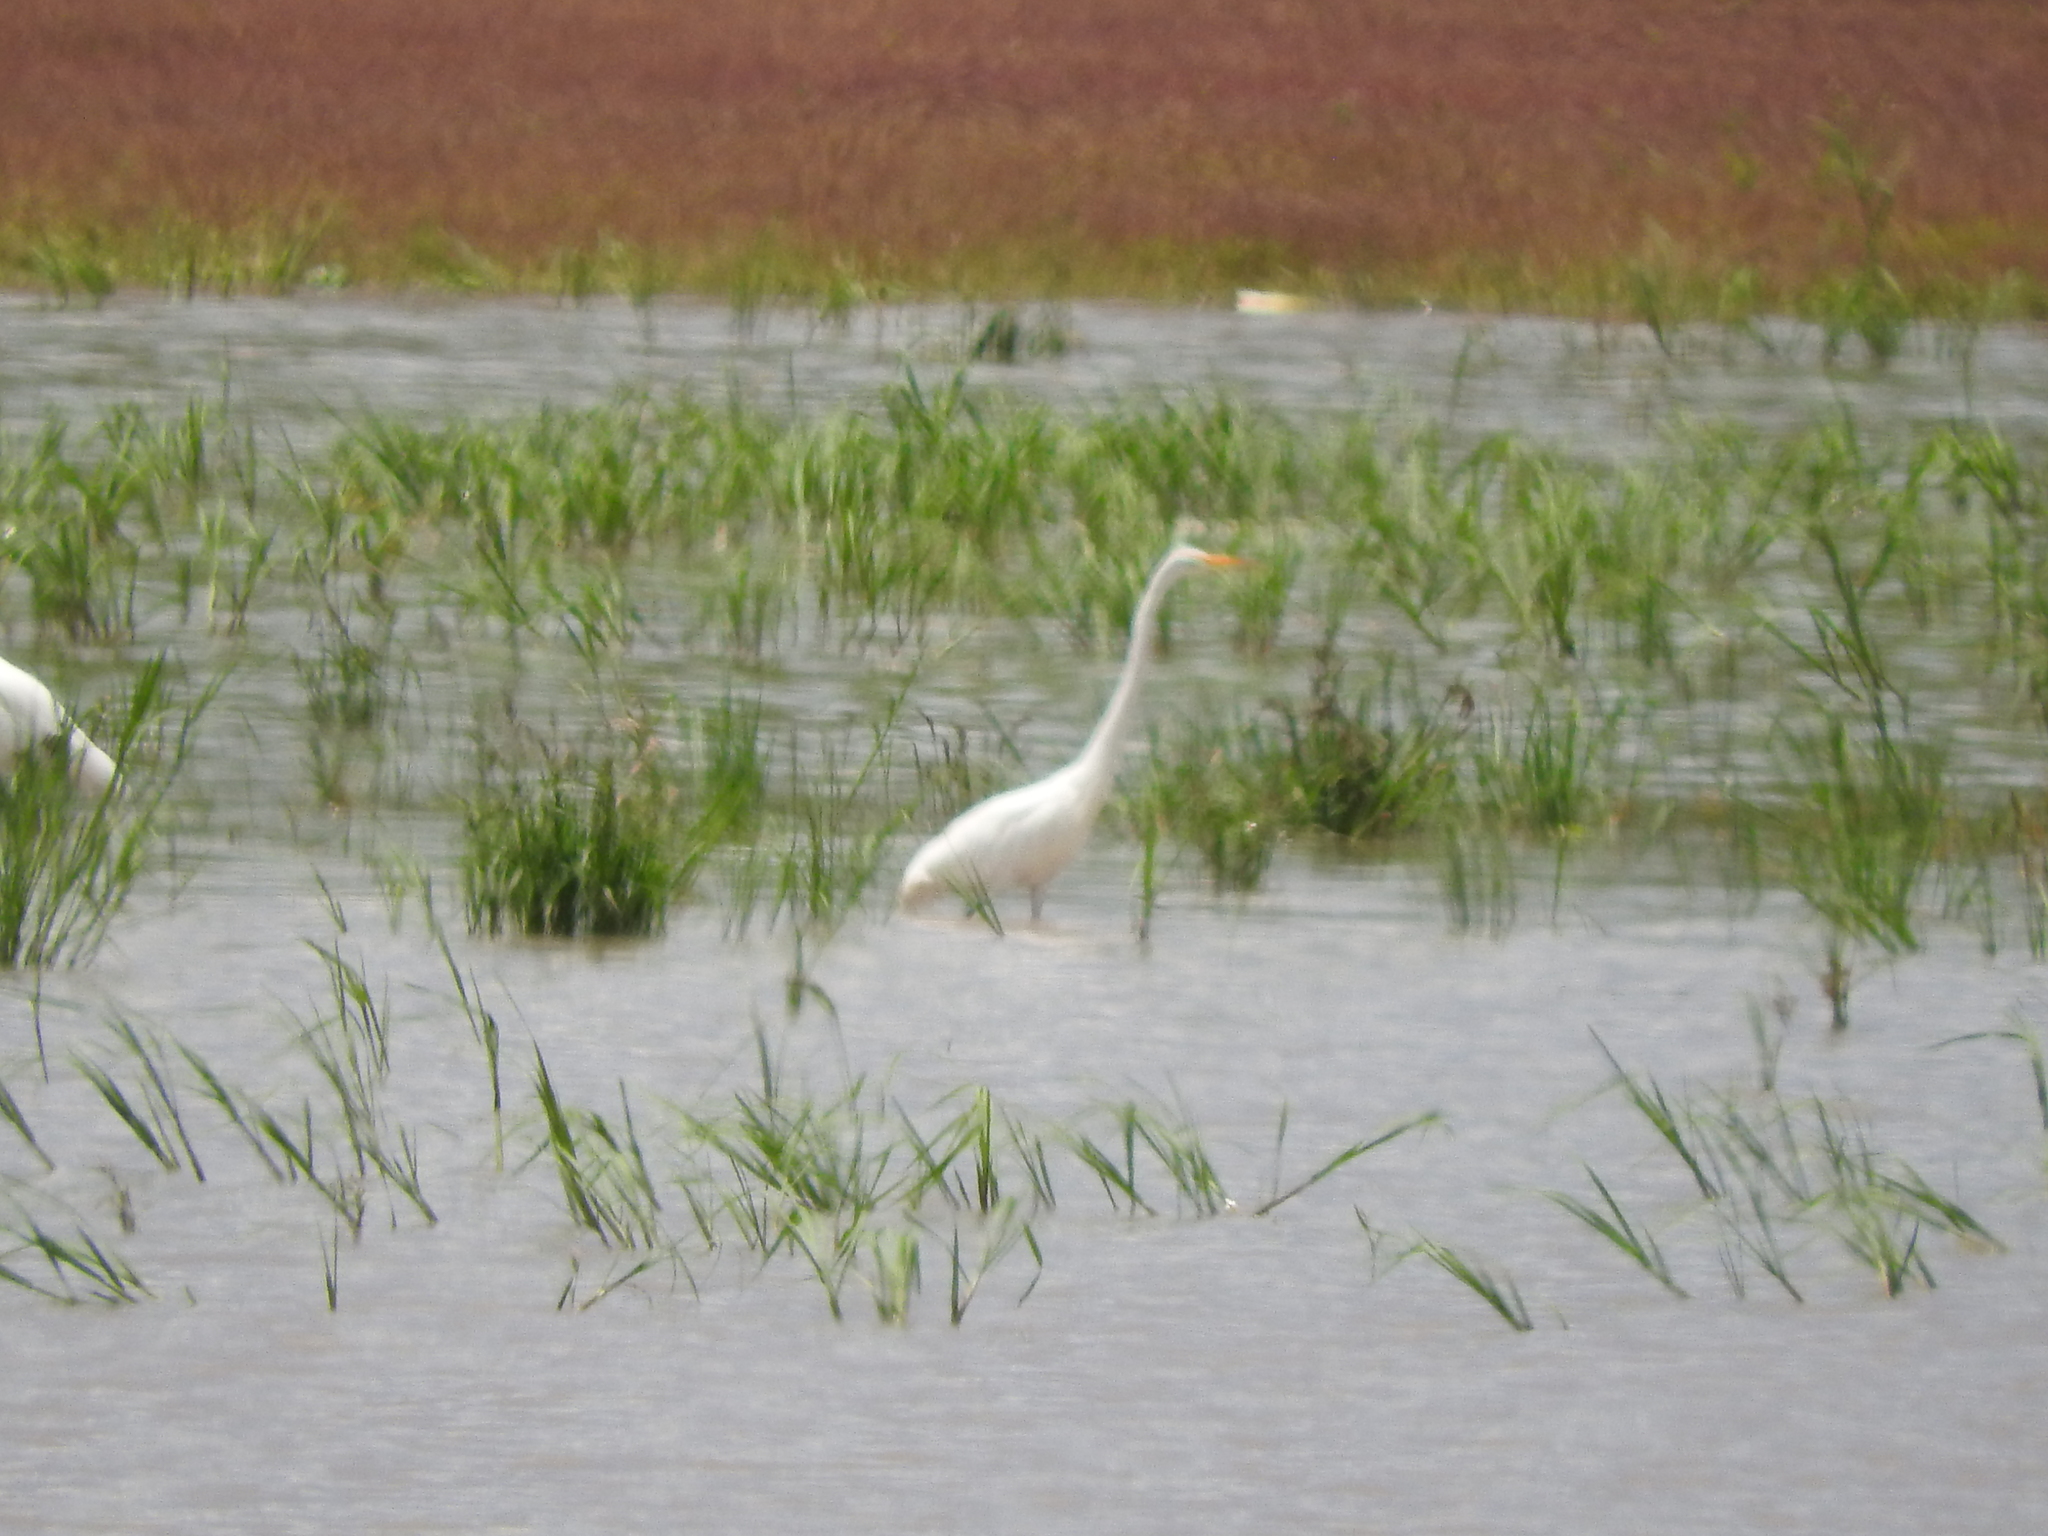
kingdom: Animalia
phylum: Chordata
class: Aves
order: Pelecaniformes
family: Ardeidae
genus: Ardea
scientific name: Ardea alba
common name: Great egret
